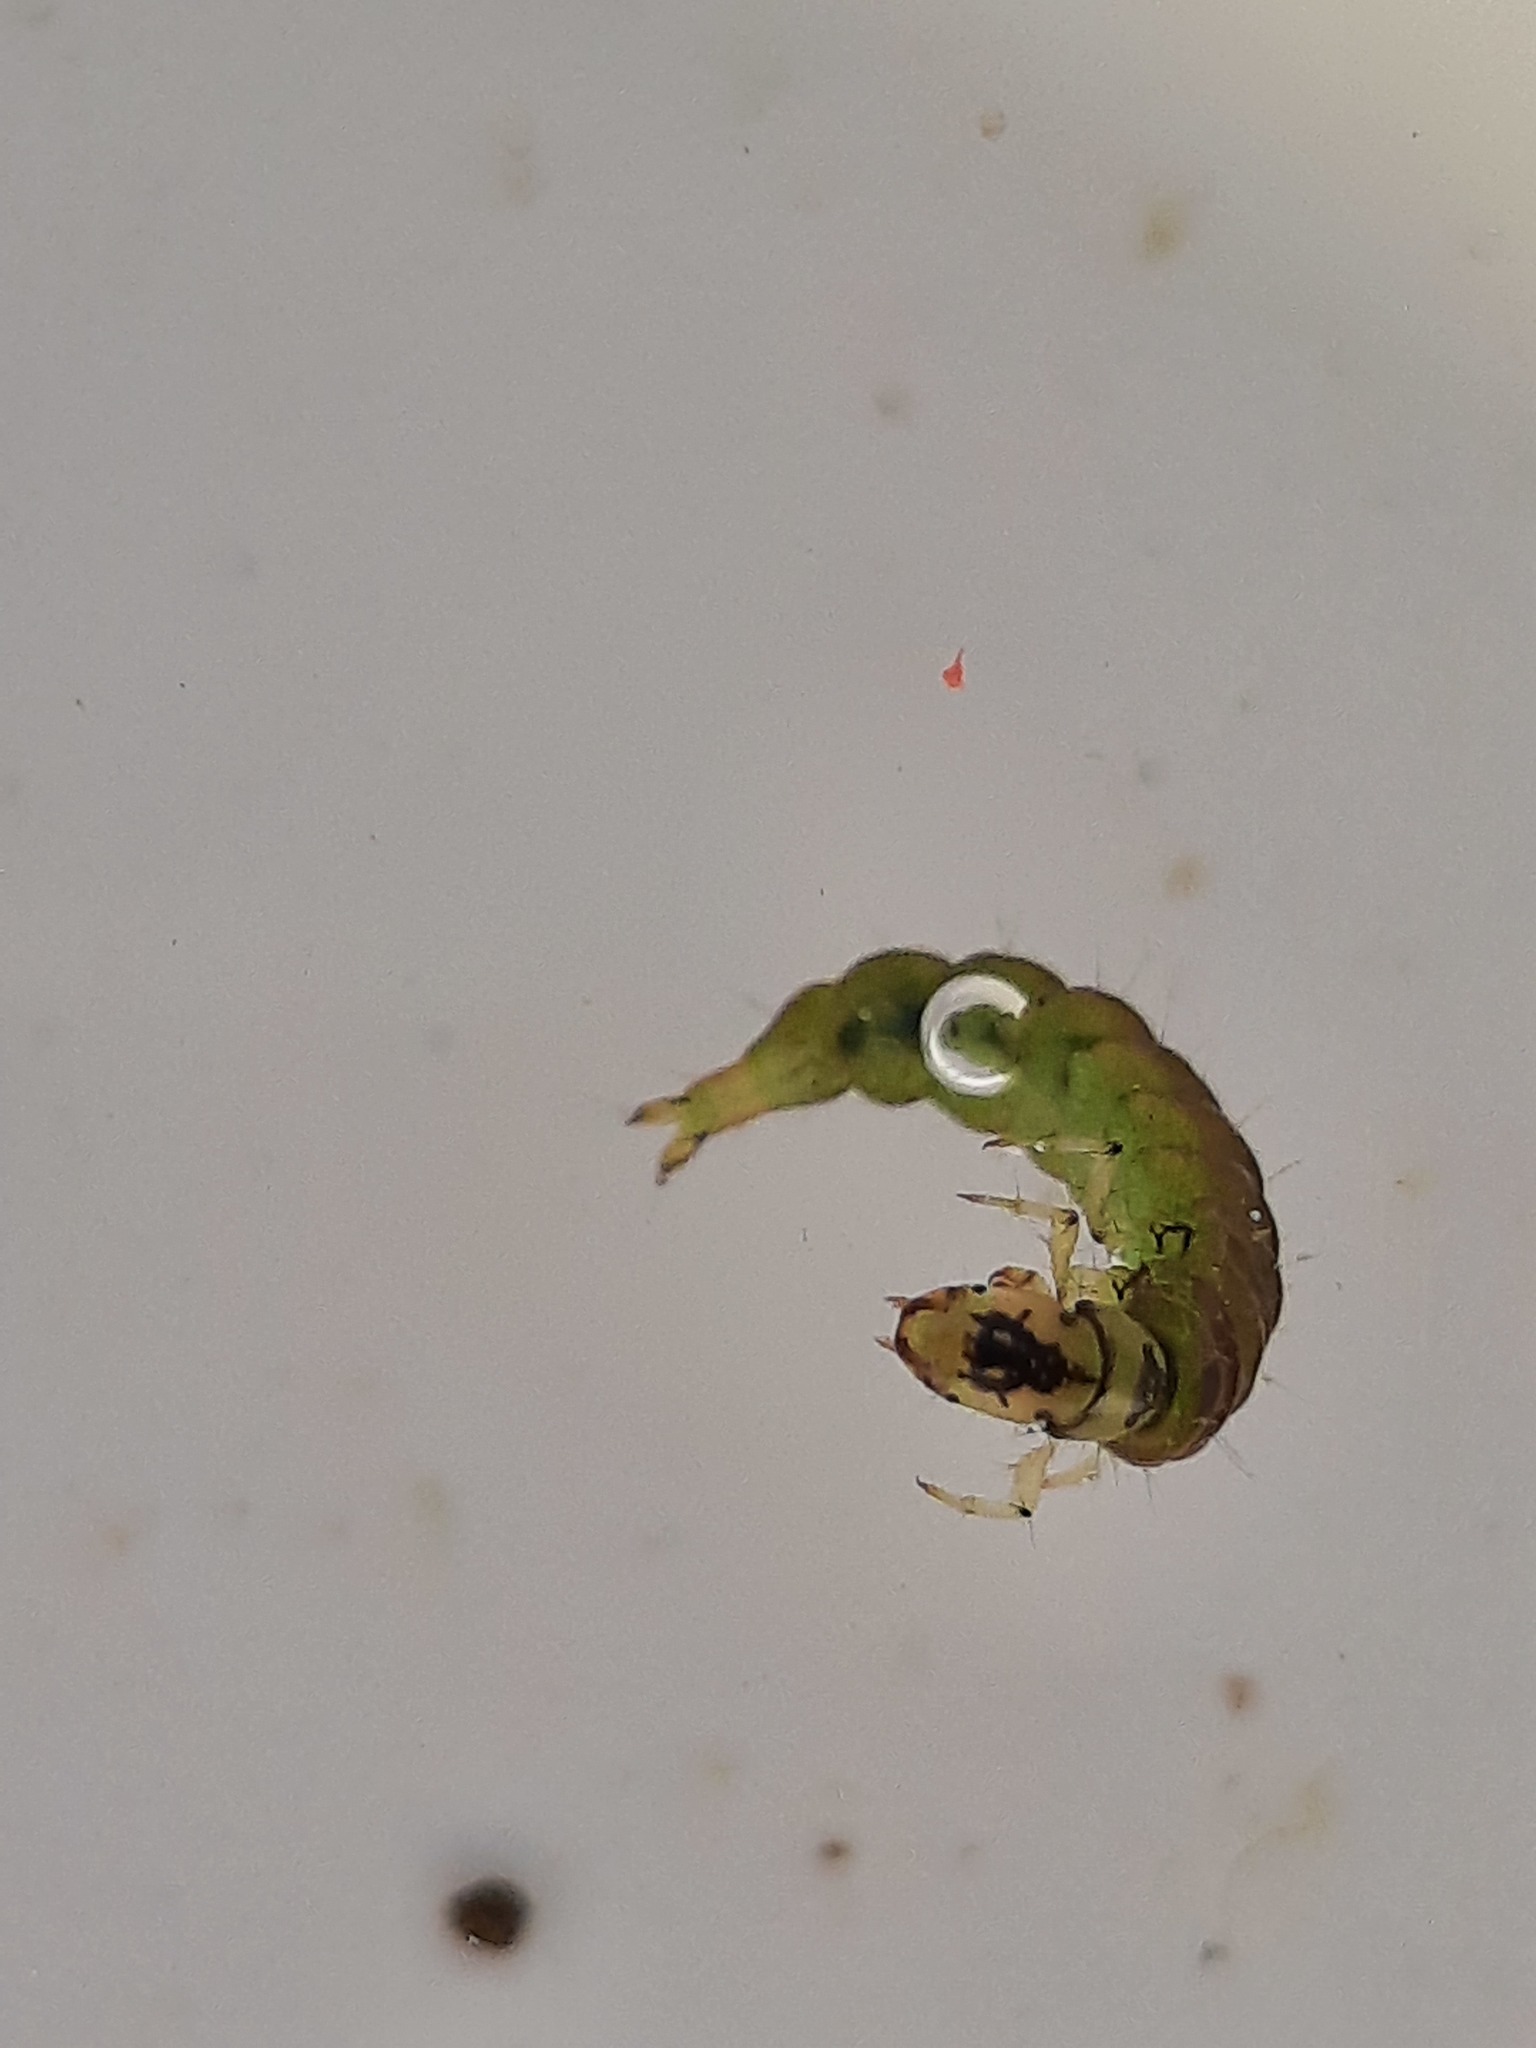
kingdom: Animalia
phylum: Arthropoda
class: Insecta
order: Trichoptera
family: Hydrobiosidae
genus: Hydrobiosis
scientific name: Hydrobiosis budgei
